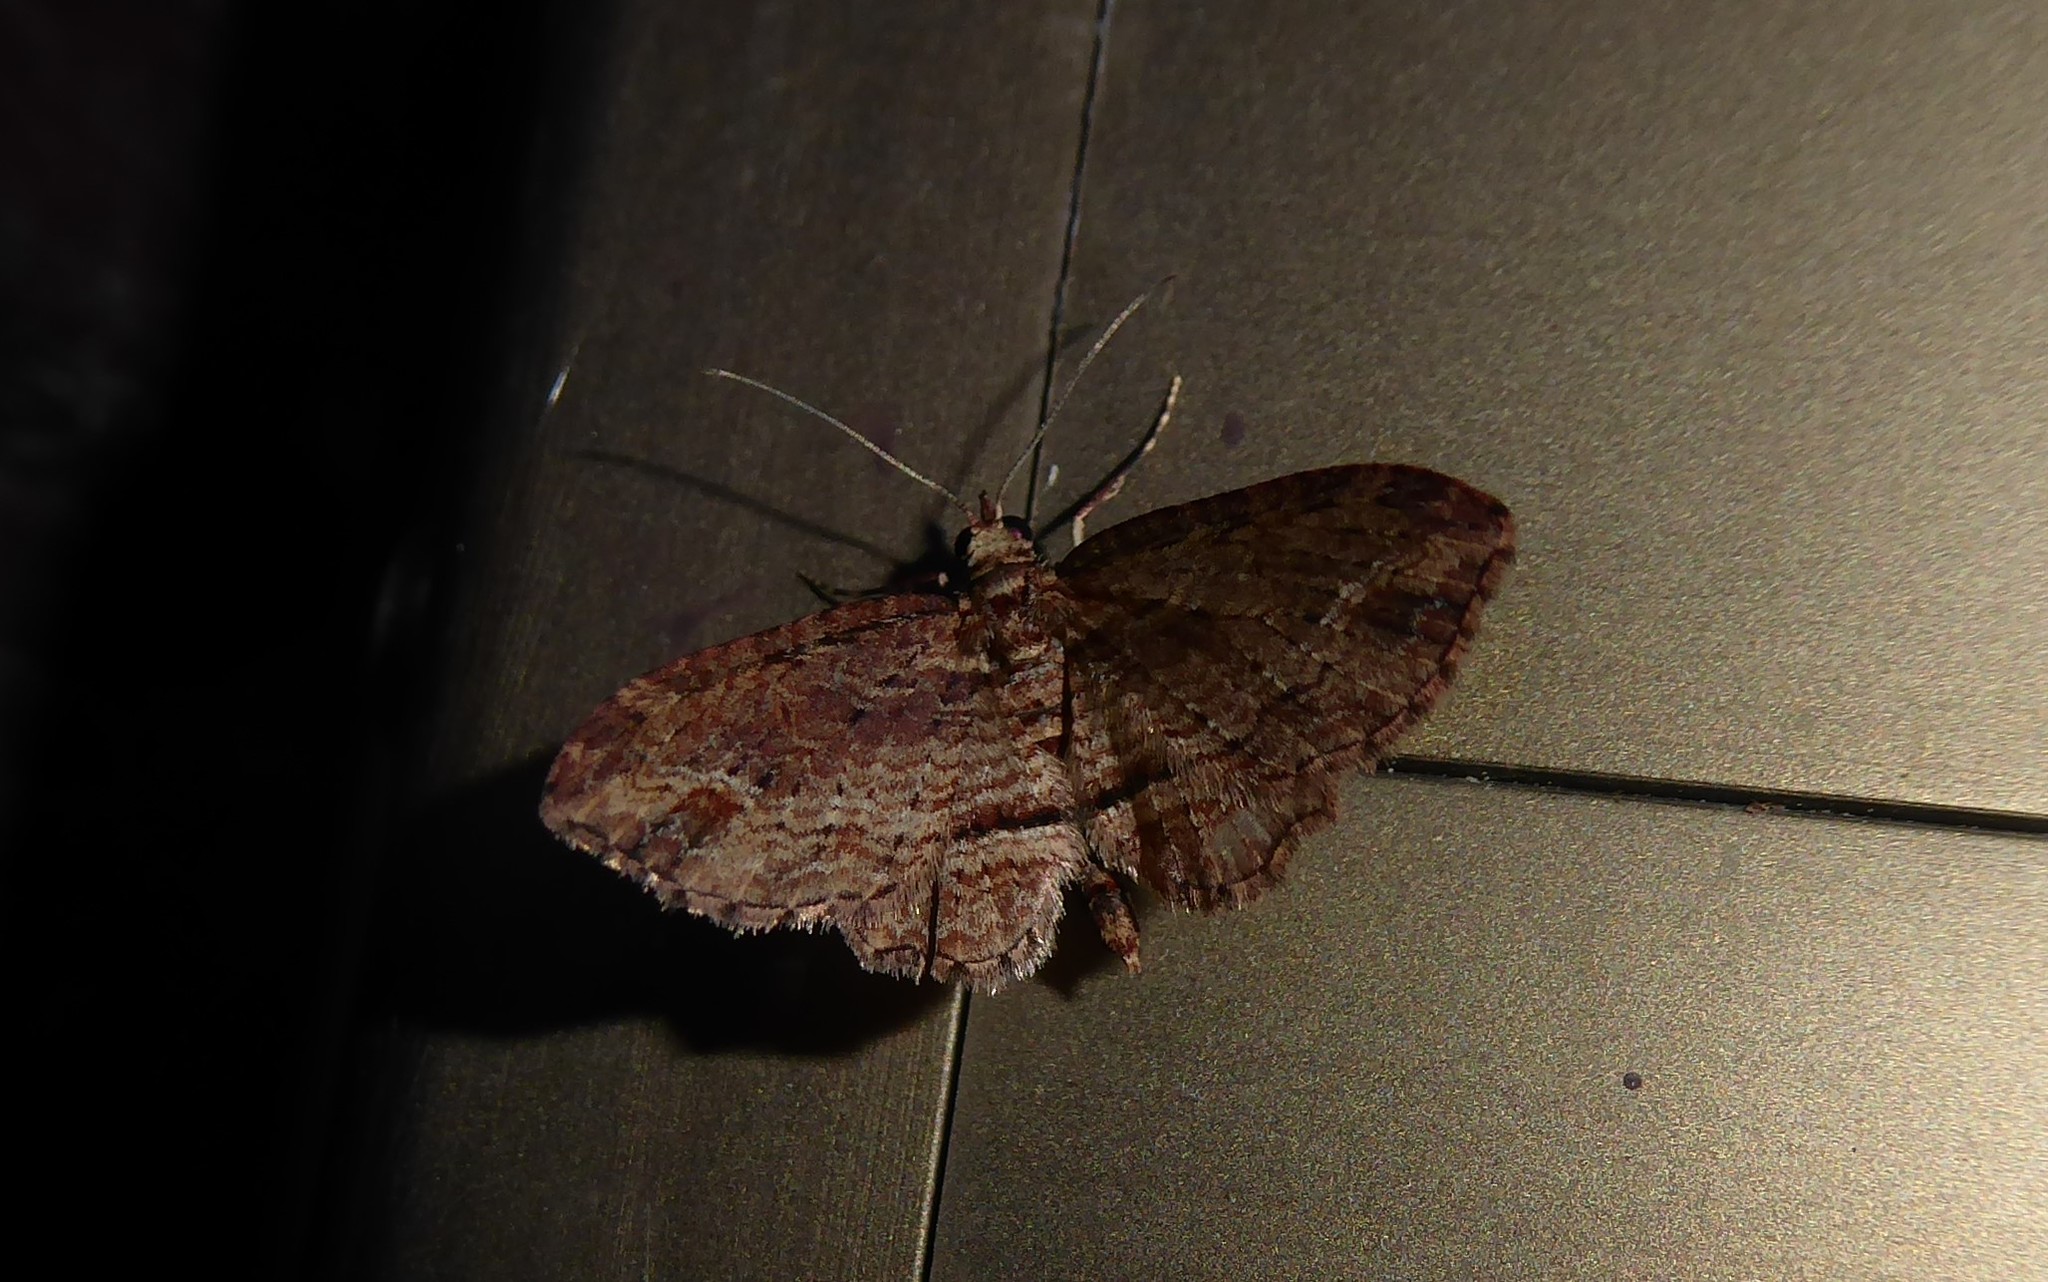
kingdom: Animalia
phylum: Arthropoda
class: Insecta
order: Lepidoptera
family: Geometridae
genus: Chloroclystis
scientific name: Chloroclystis filata
